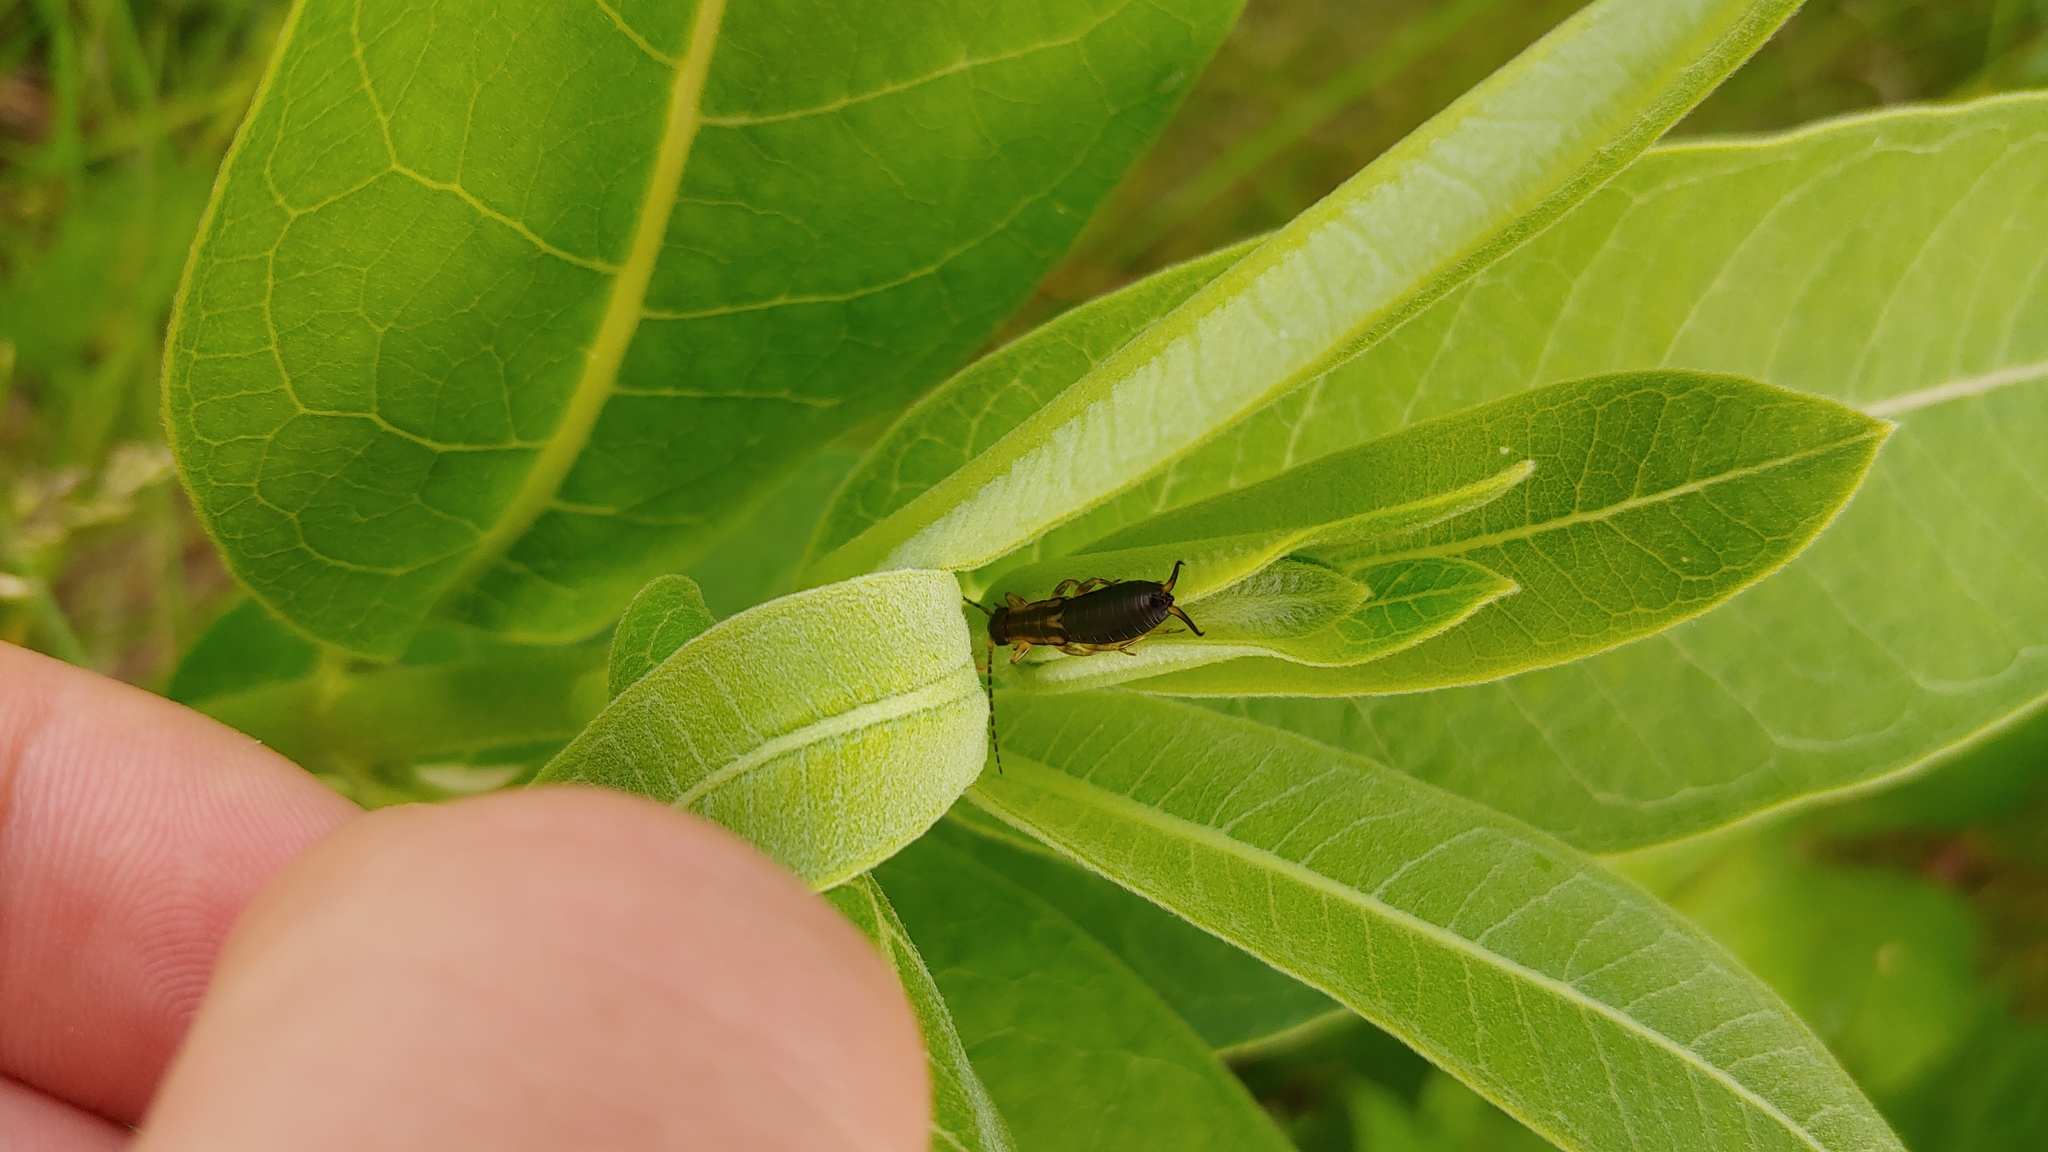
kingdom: Animalia
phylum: Arthropoda
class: Insecta
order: Dermaptera
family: Forficulidae
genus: Forficula
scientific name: Forficula
